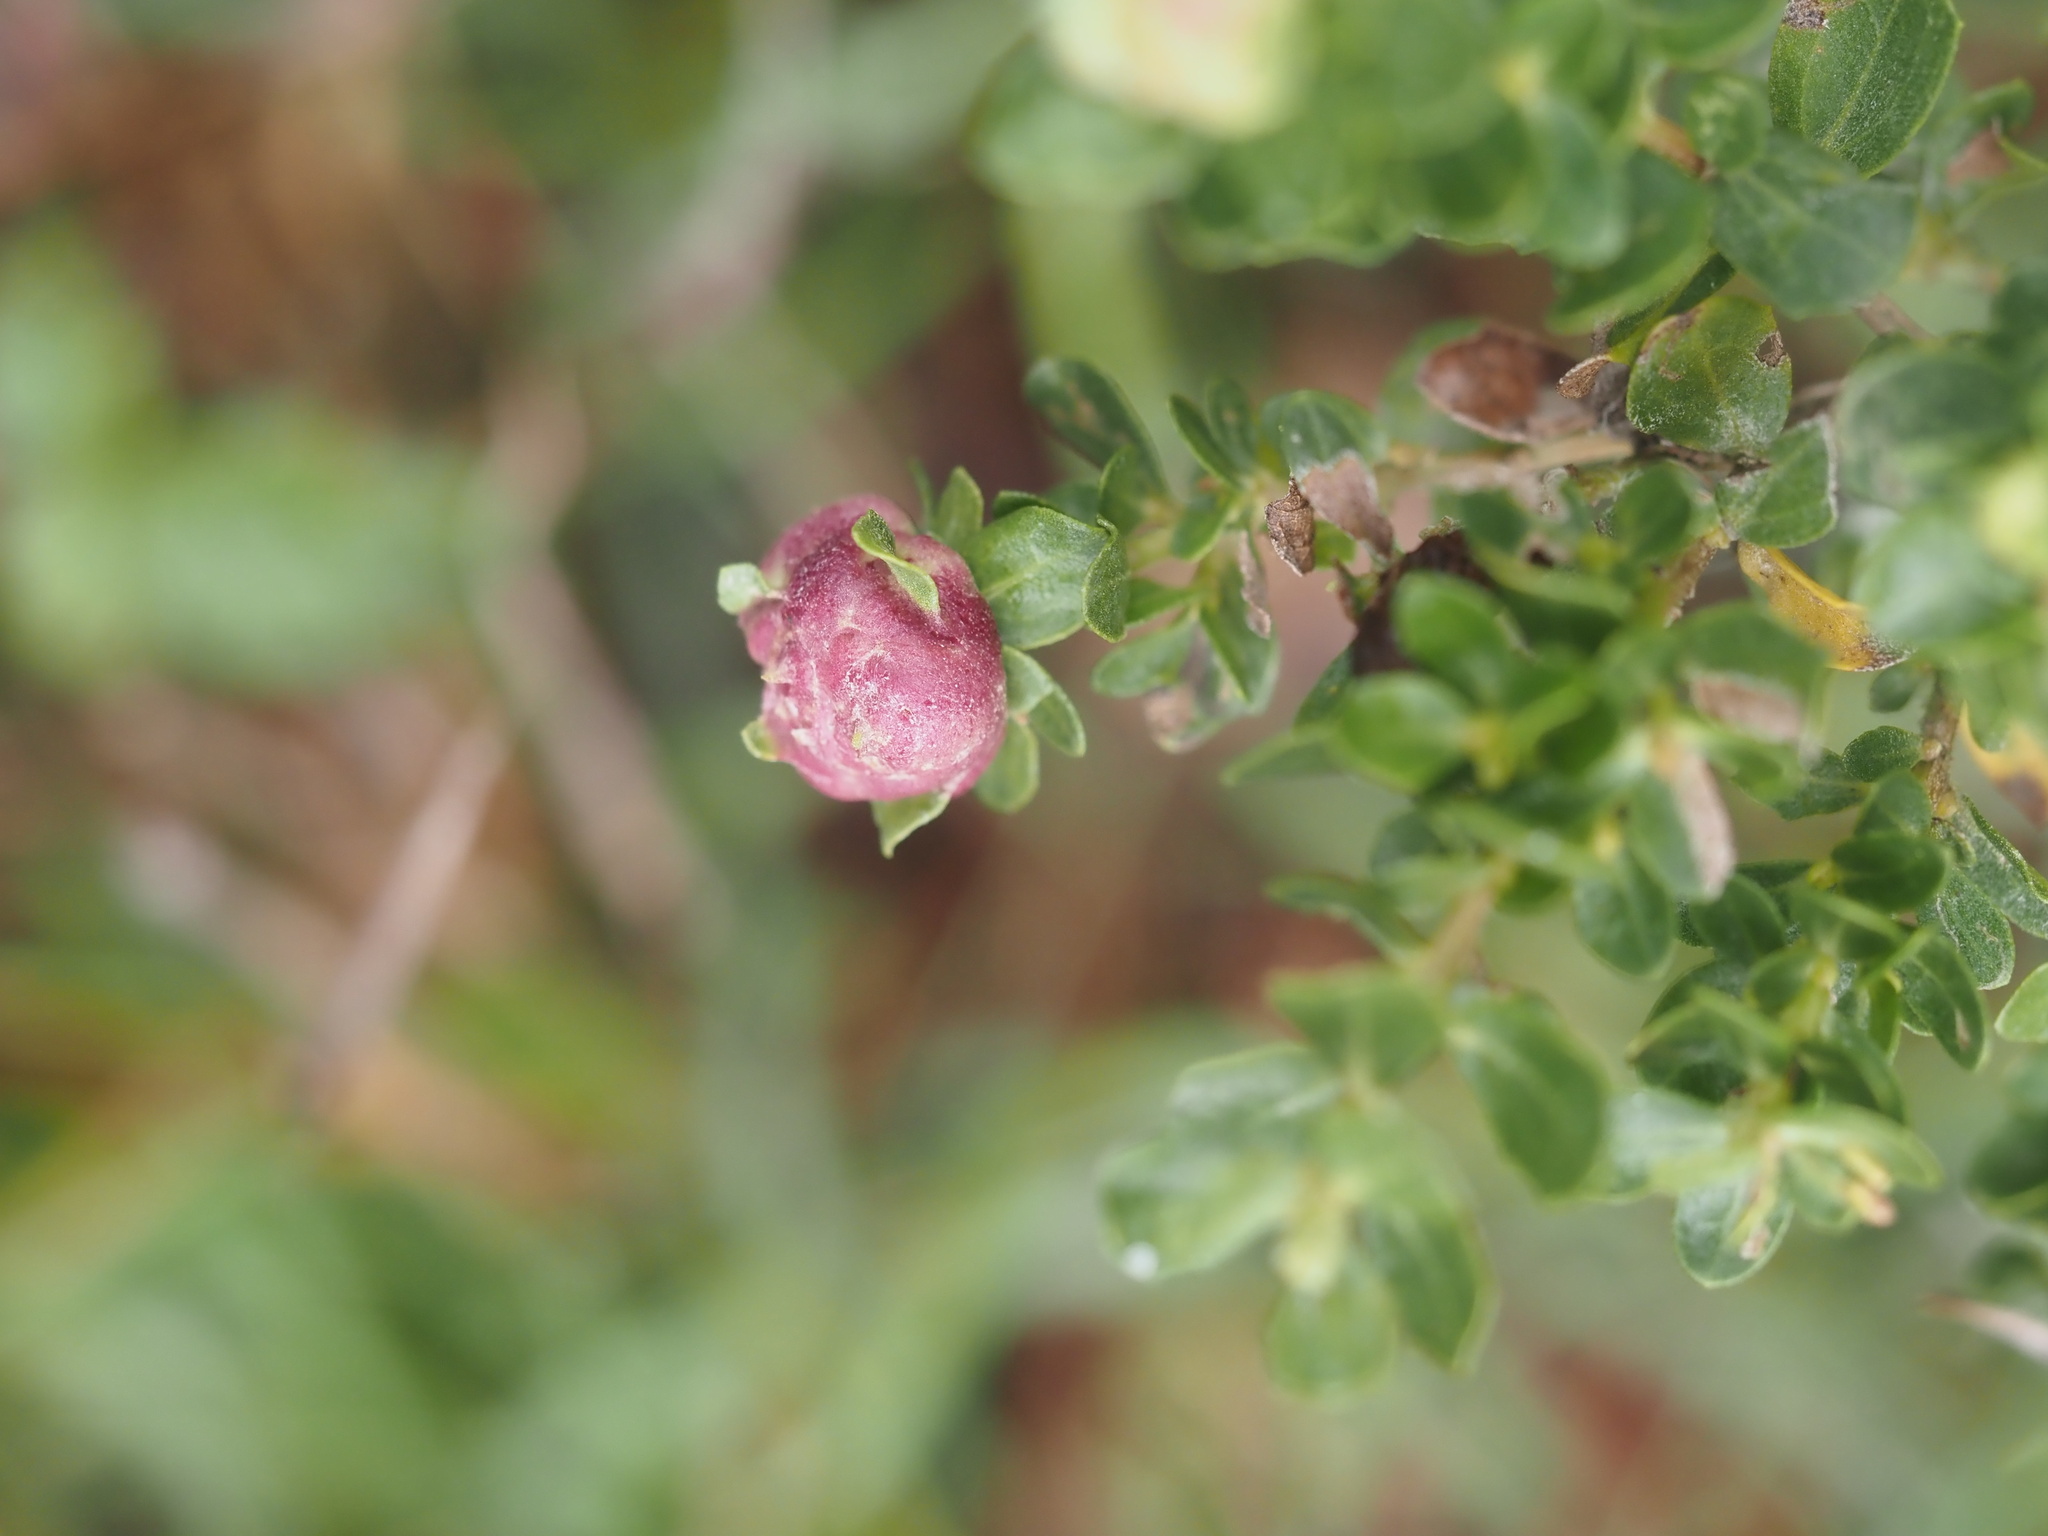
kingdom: Animalia
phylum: Arthropoda
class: Insecta
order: Diptera
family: Cecidomyiidae
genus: Rhopalomyia
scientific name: Rhopalomyia californica
